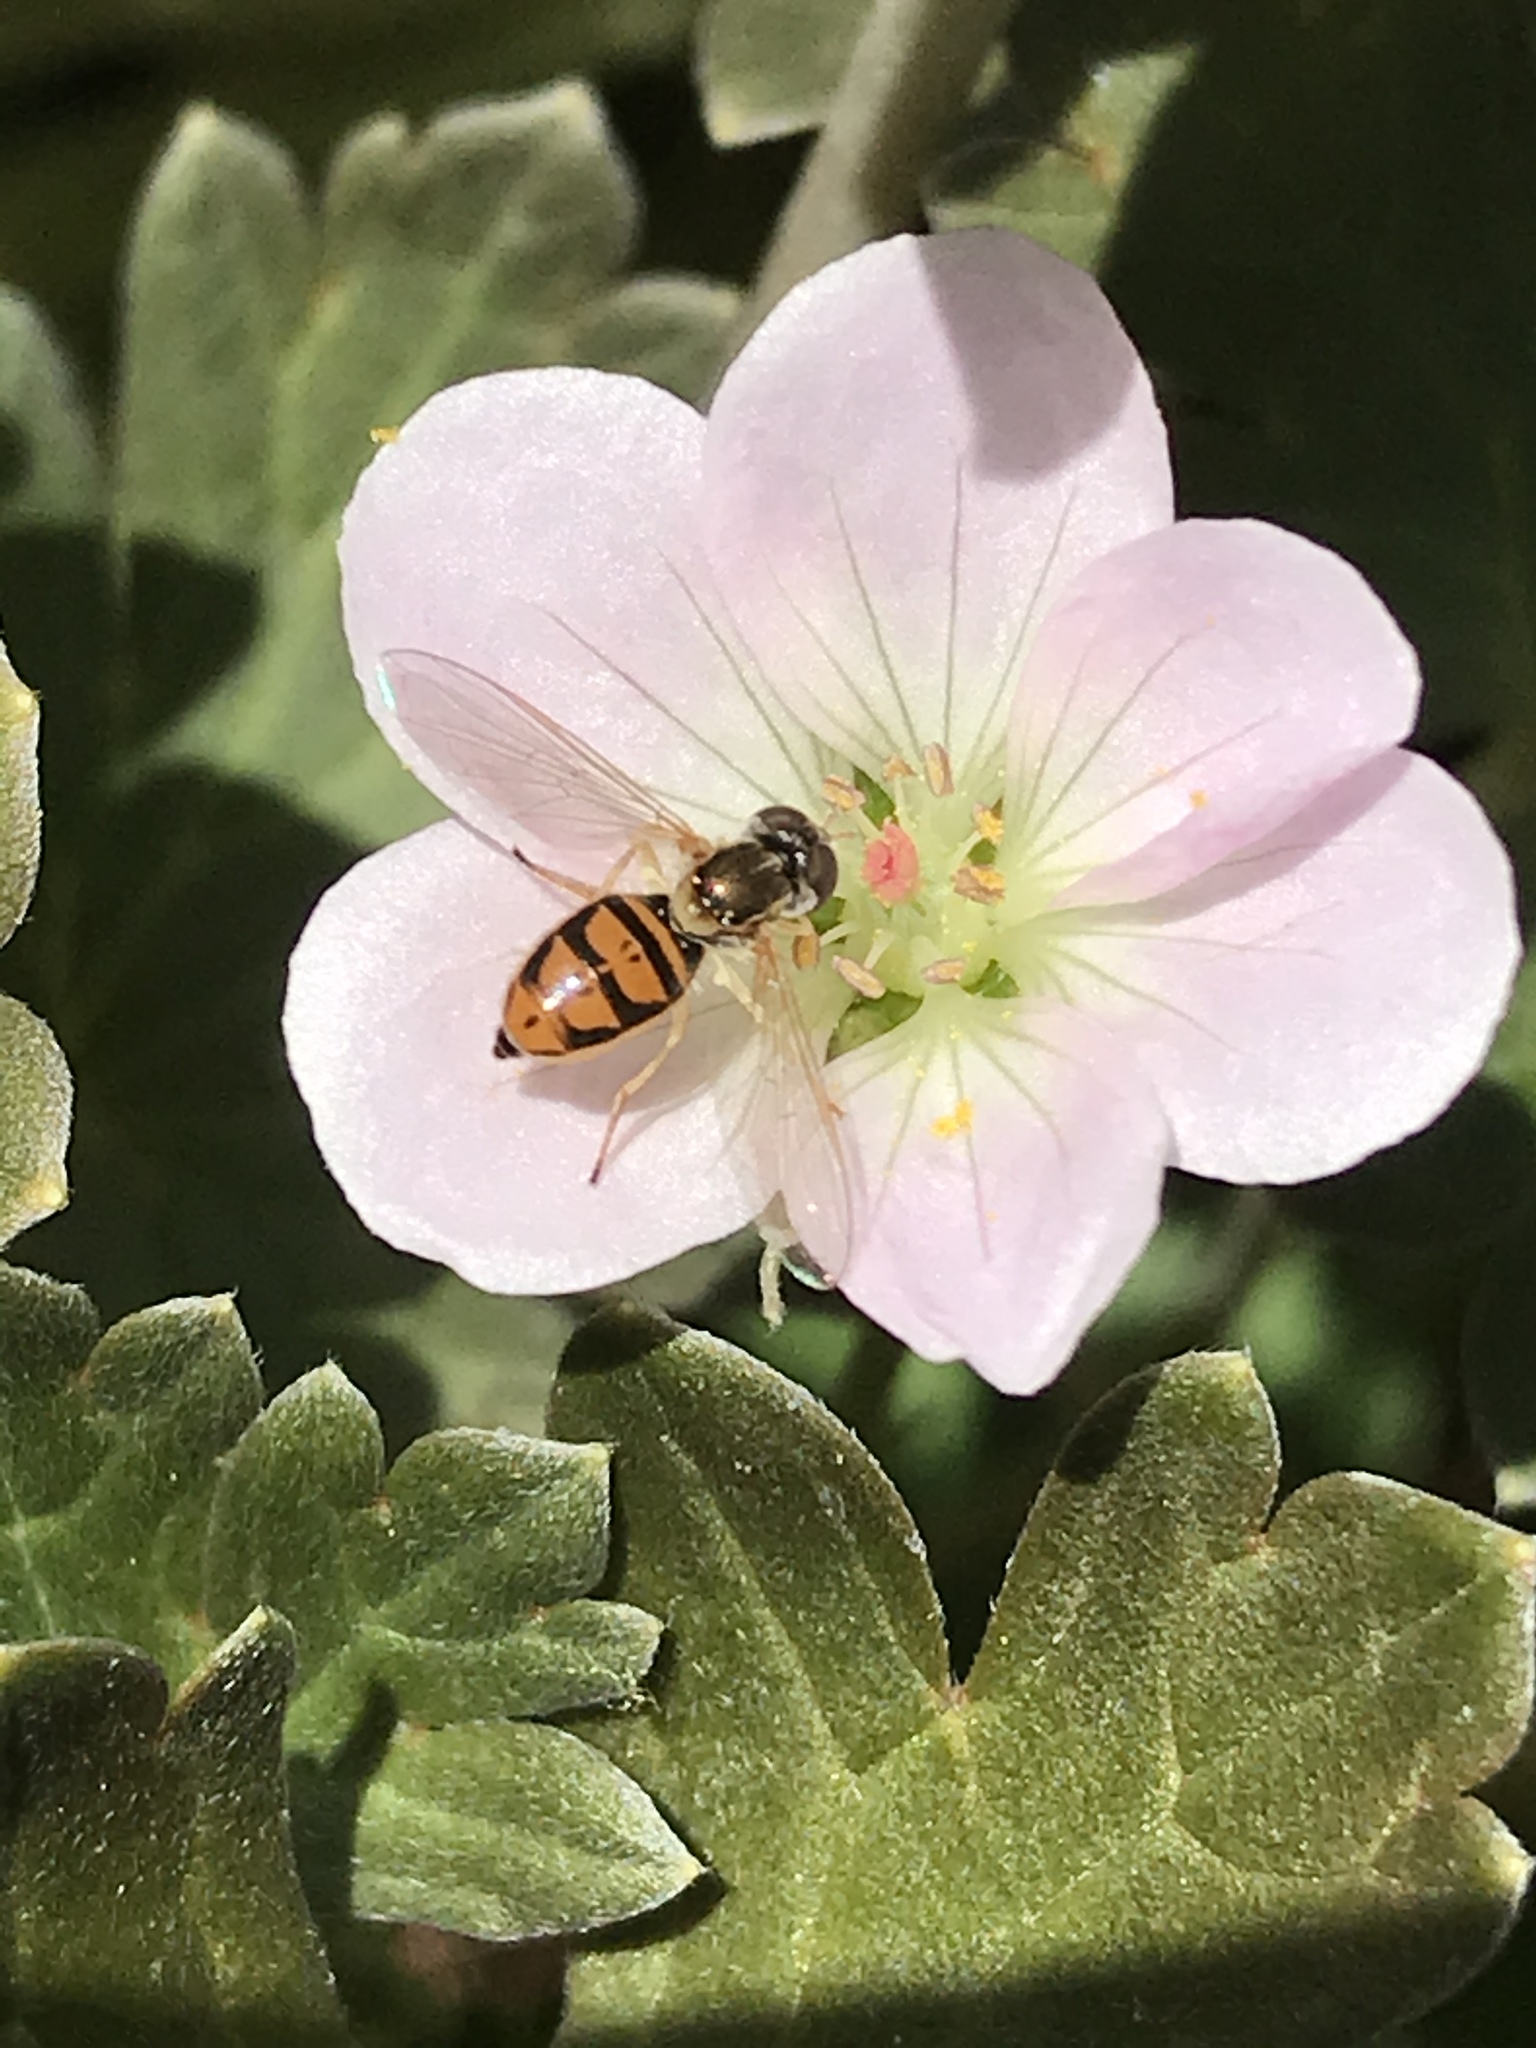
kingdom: Animalia
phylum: Arthropoda
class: Insecta
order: Diptera
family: Syrphidae
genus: Toxomerus
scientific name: Toxomerus marginatus
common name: Syrphid fly
